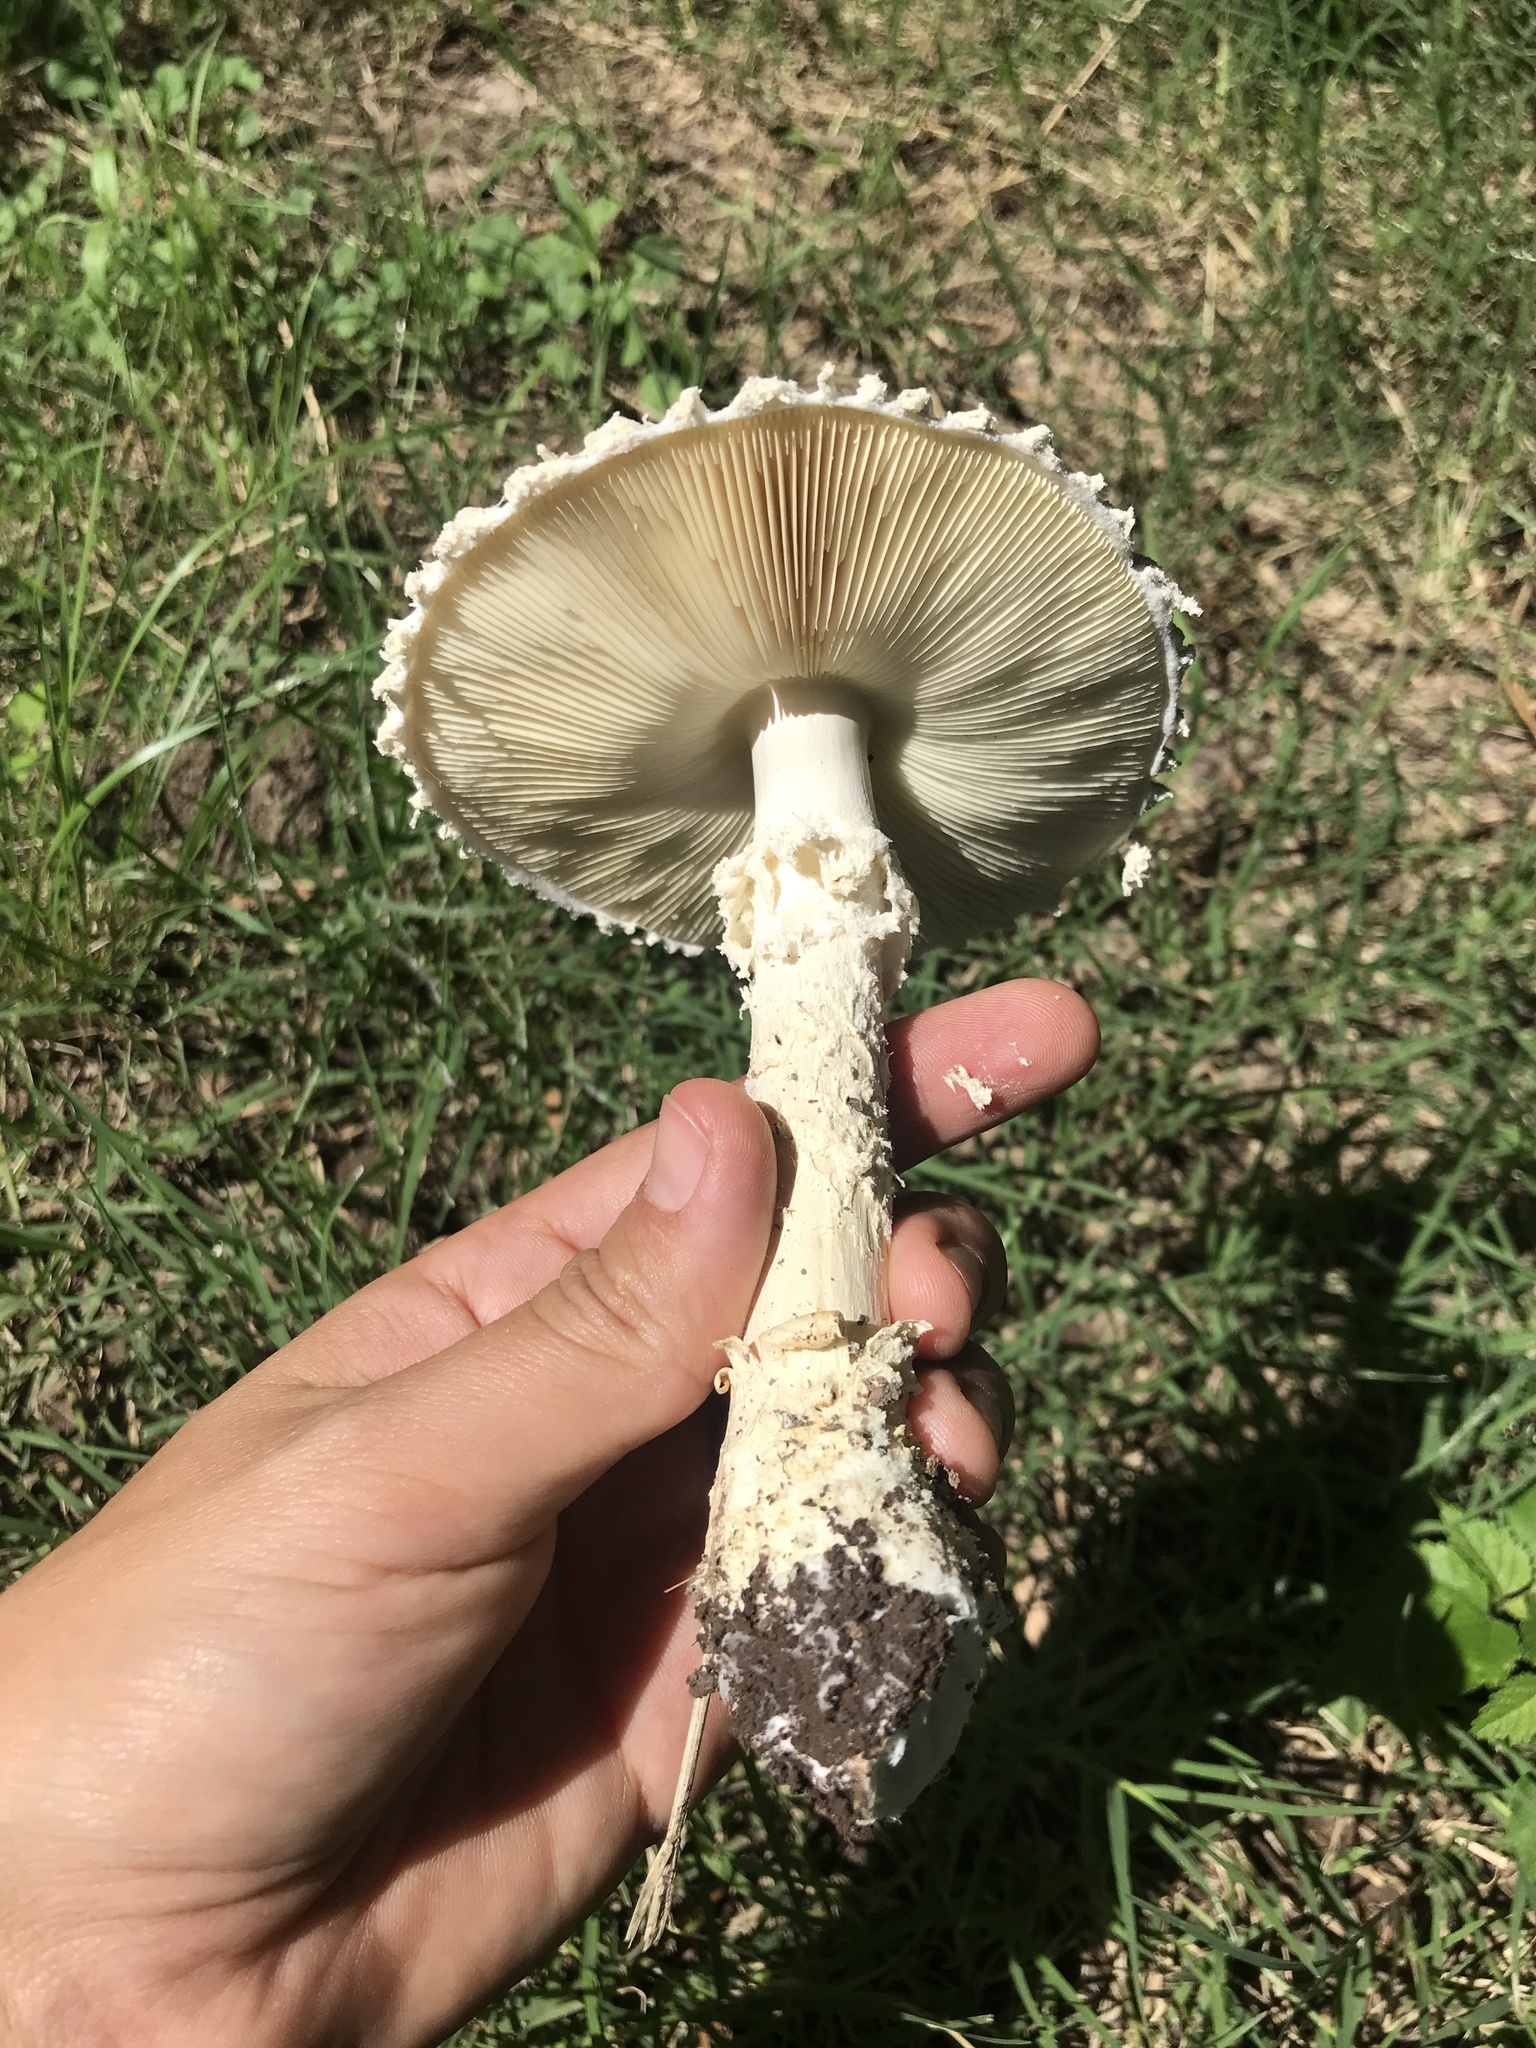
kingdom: Fungi
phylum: Basidiomycota
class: Agaricomycetes
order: Agaricales
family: Amanitaceae
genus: Aspidella
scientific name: Aspidella foetens
